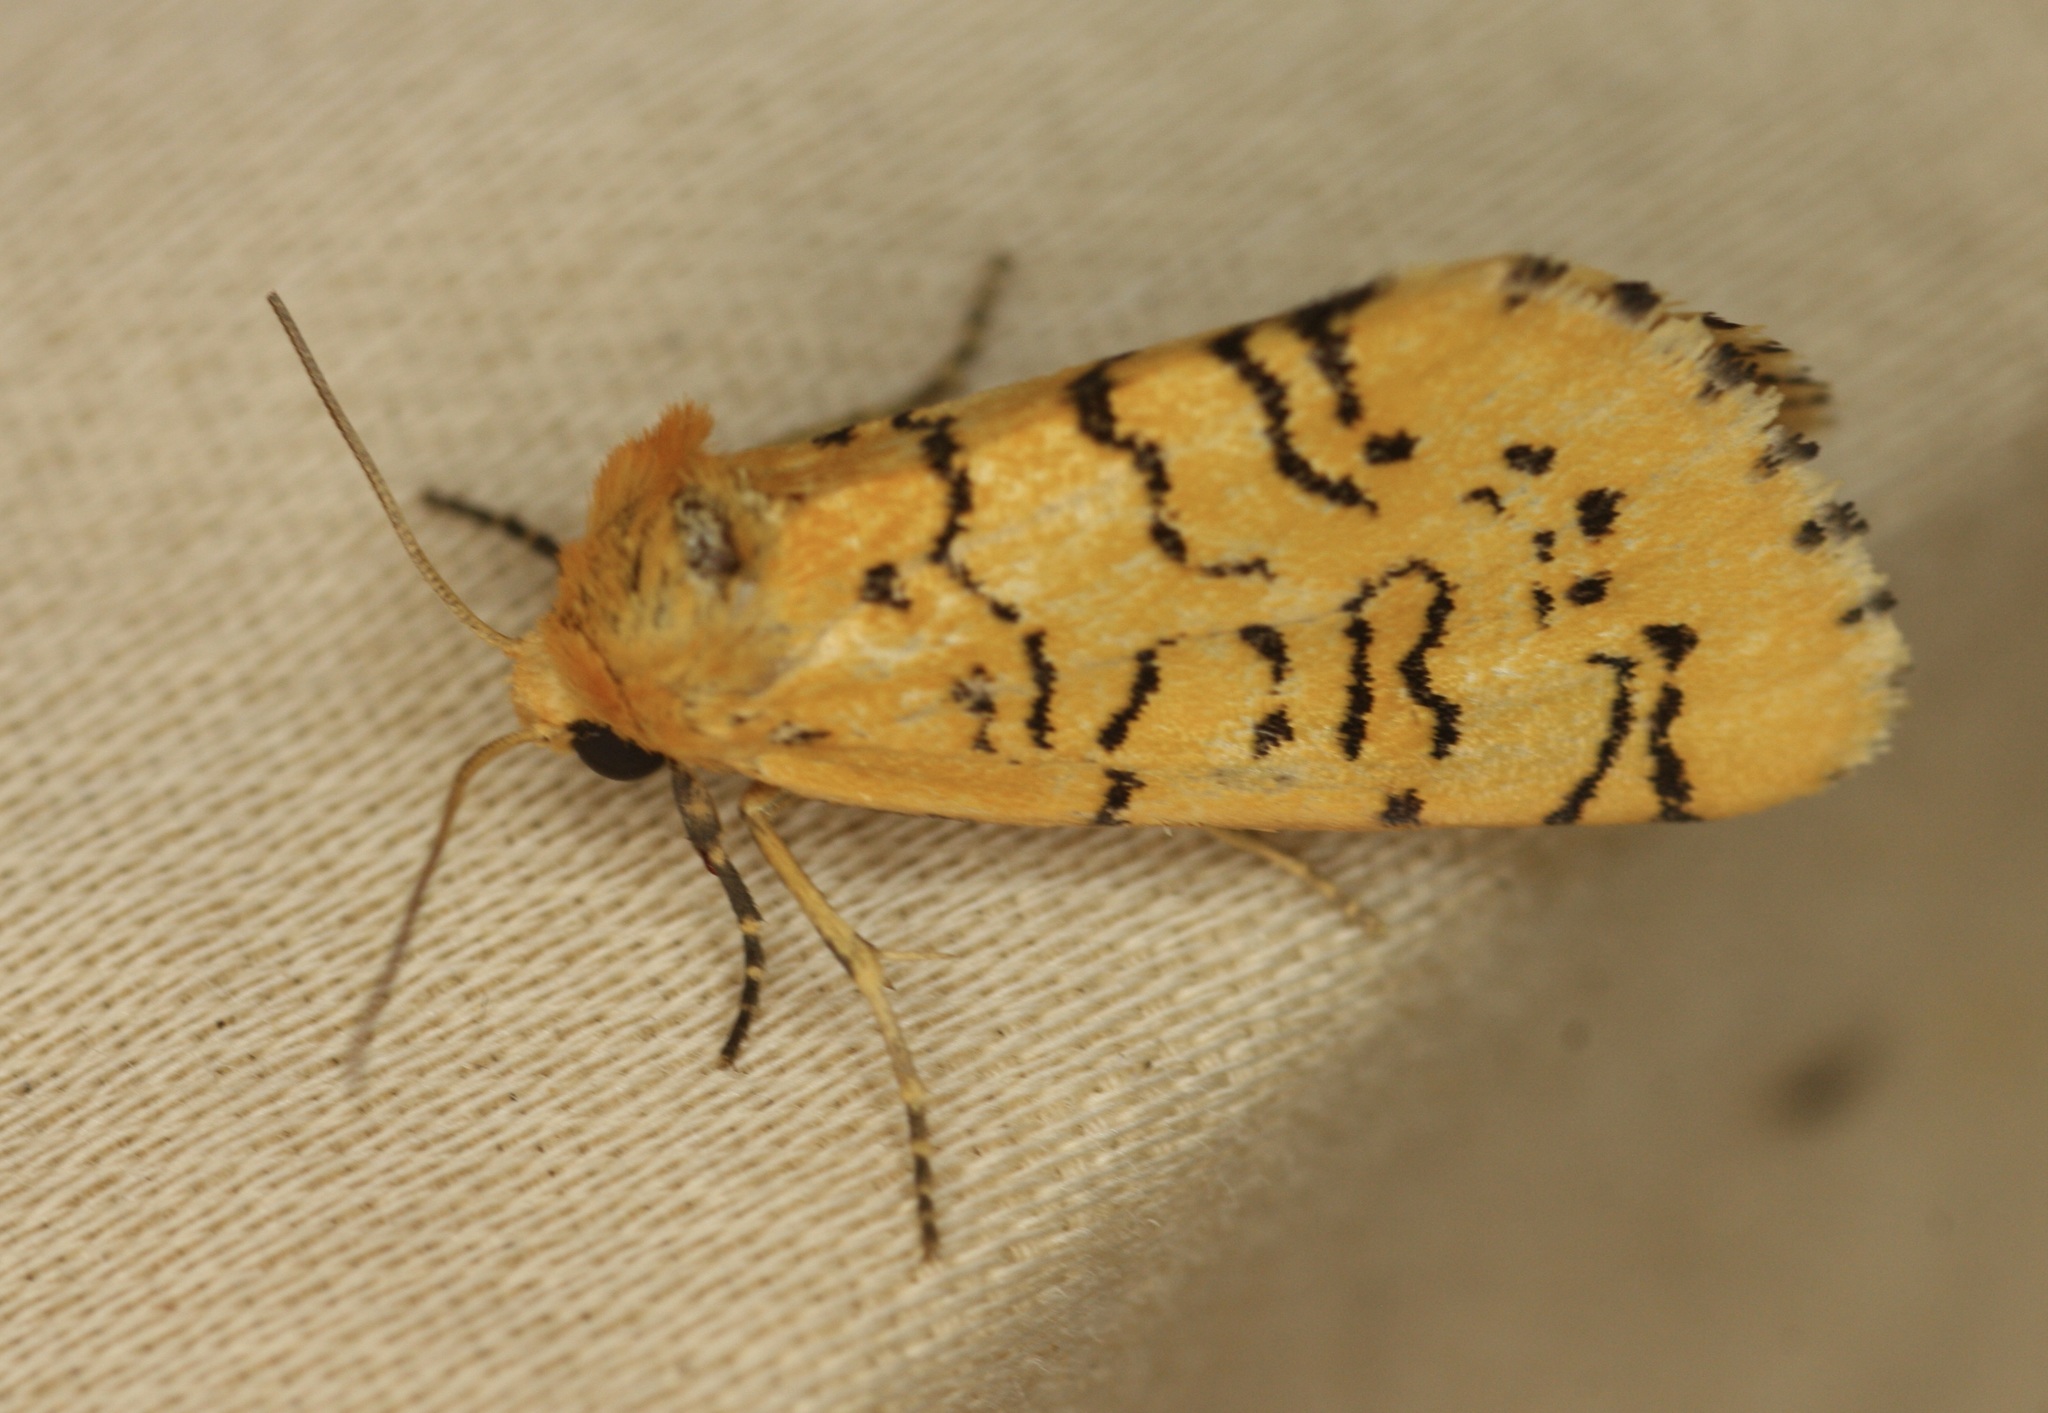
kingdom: Animalia
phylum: Arthropoda
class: Insecta
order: Lepidoptera
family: Noctuidae
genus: Chrysoecia
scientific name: Chrysoecia atrolinea
